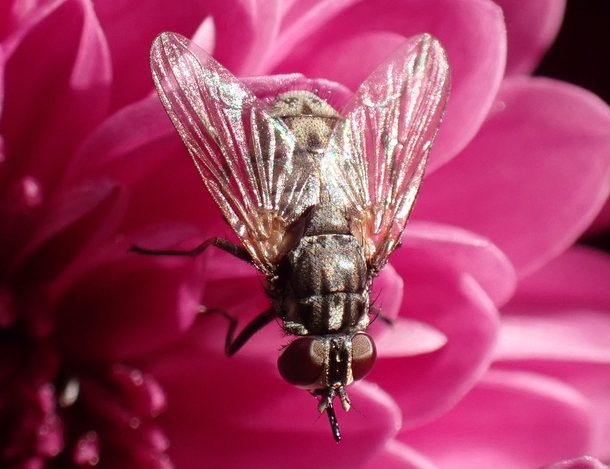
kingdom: Animalia
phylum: Arthropoda
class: Insecta
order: Diptera
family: Muscidae
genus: Stomoxys
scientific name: Stomoxys calcitrans
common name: Stable fly
